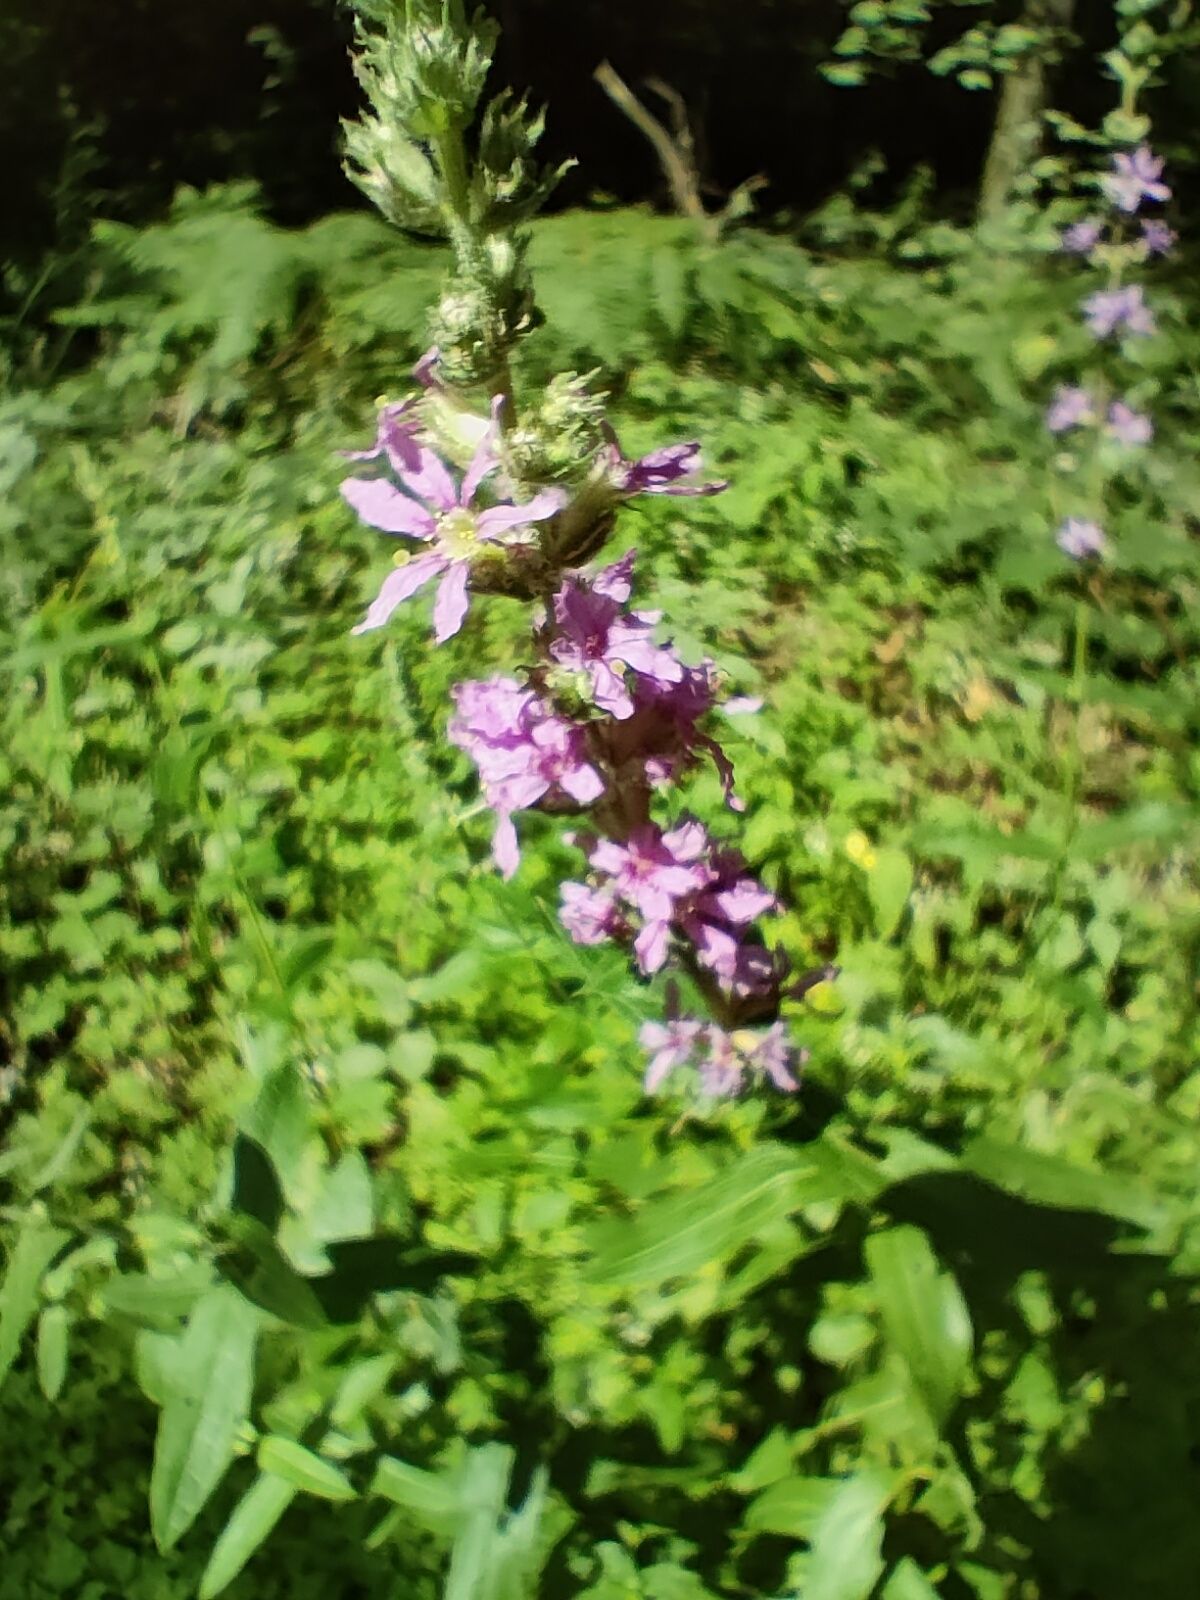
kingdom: Plantae
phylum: Tracheophyta
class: Magnoliopsida
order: Myrtales
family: Lythraceae
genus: Lythrum
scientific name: Lythrum salicaria
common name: Purple loosestrife
